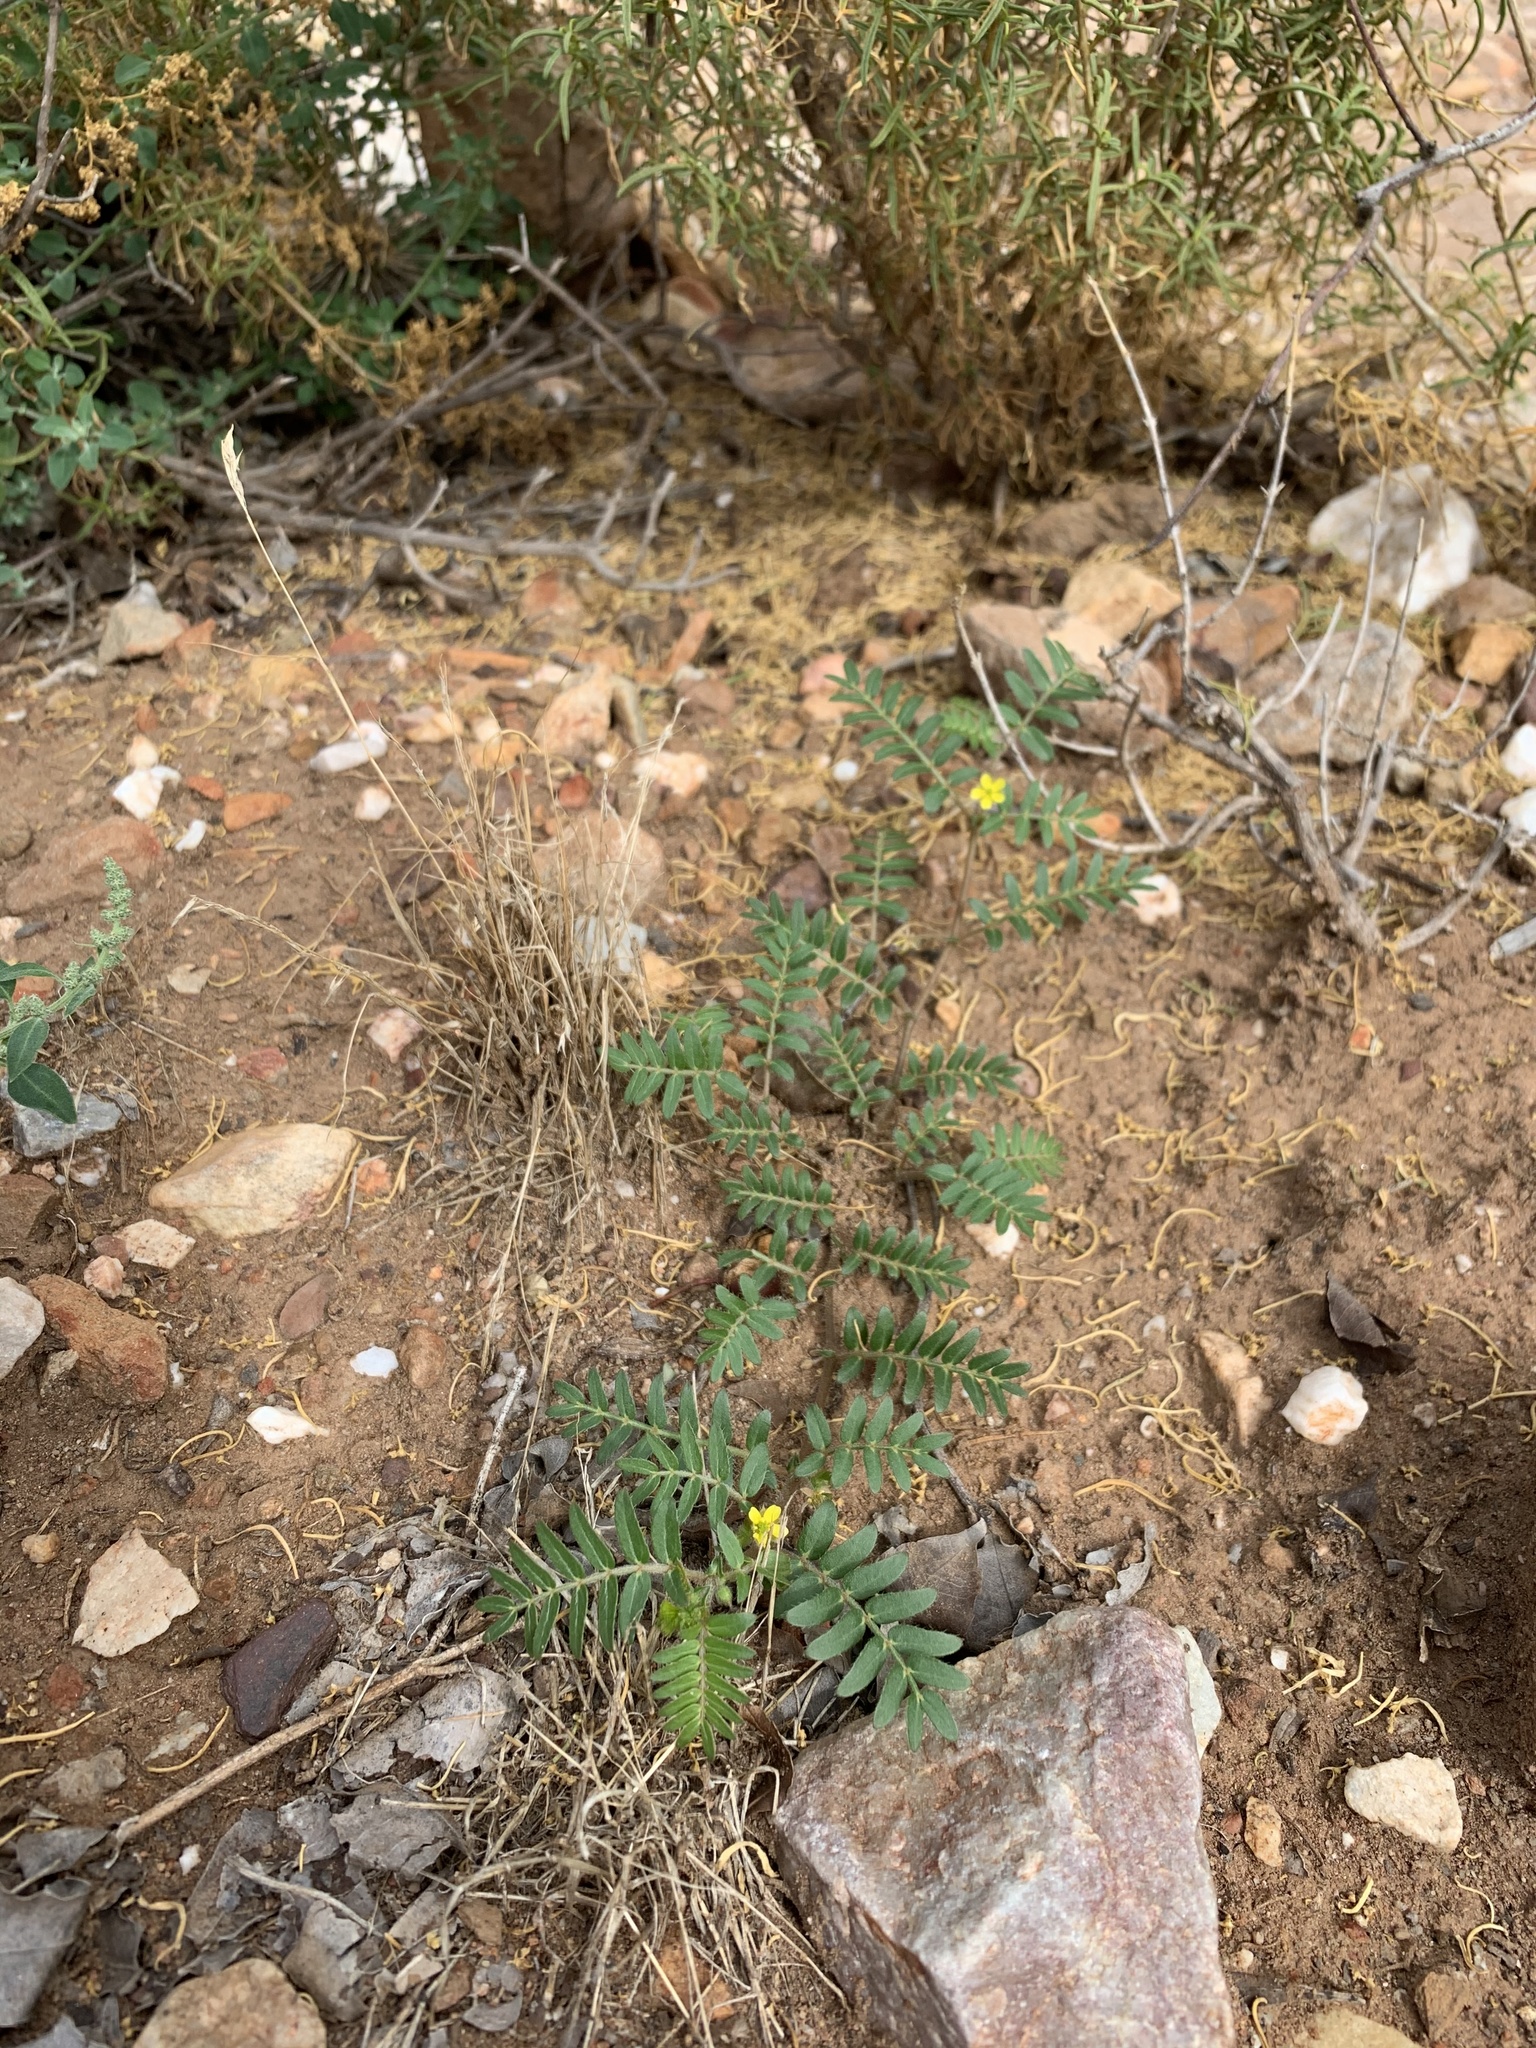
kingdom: Plantae
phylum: Tracheophyta
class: Magnoliopsida
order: Zygophyllales
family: Zygophyllaceae
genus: Tribulus
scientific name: Tribulus terrestris
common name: Puncturevine
